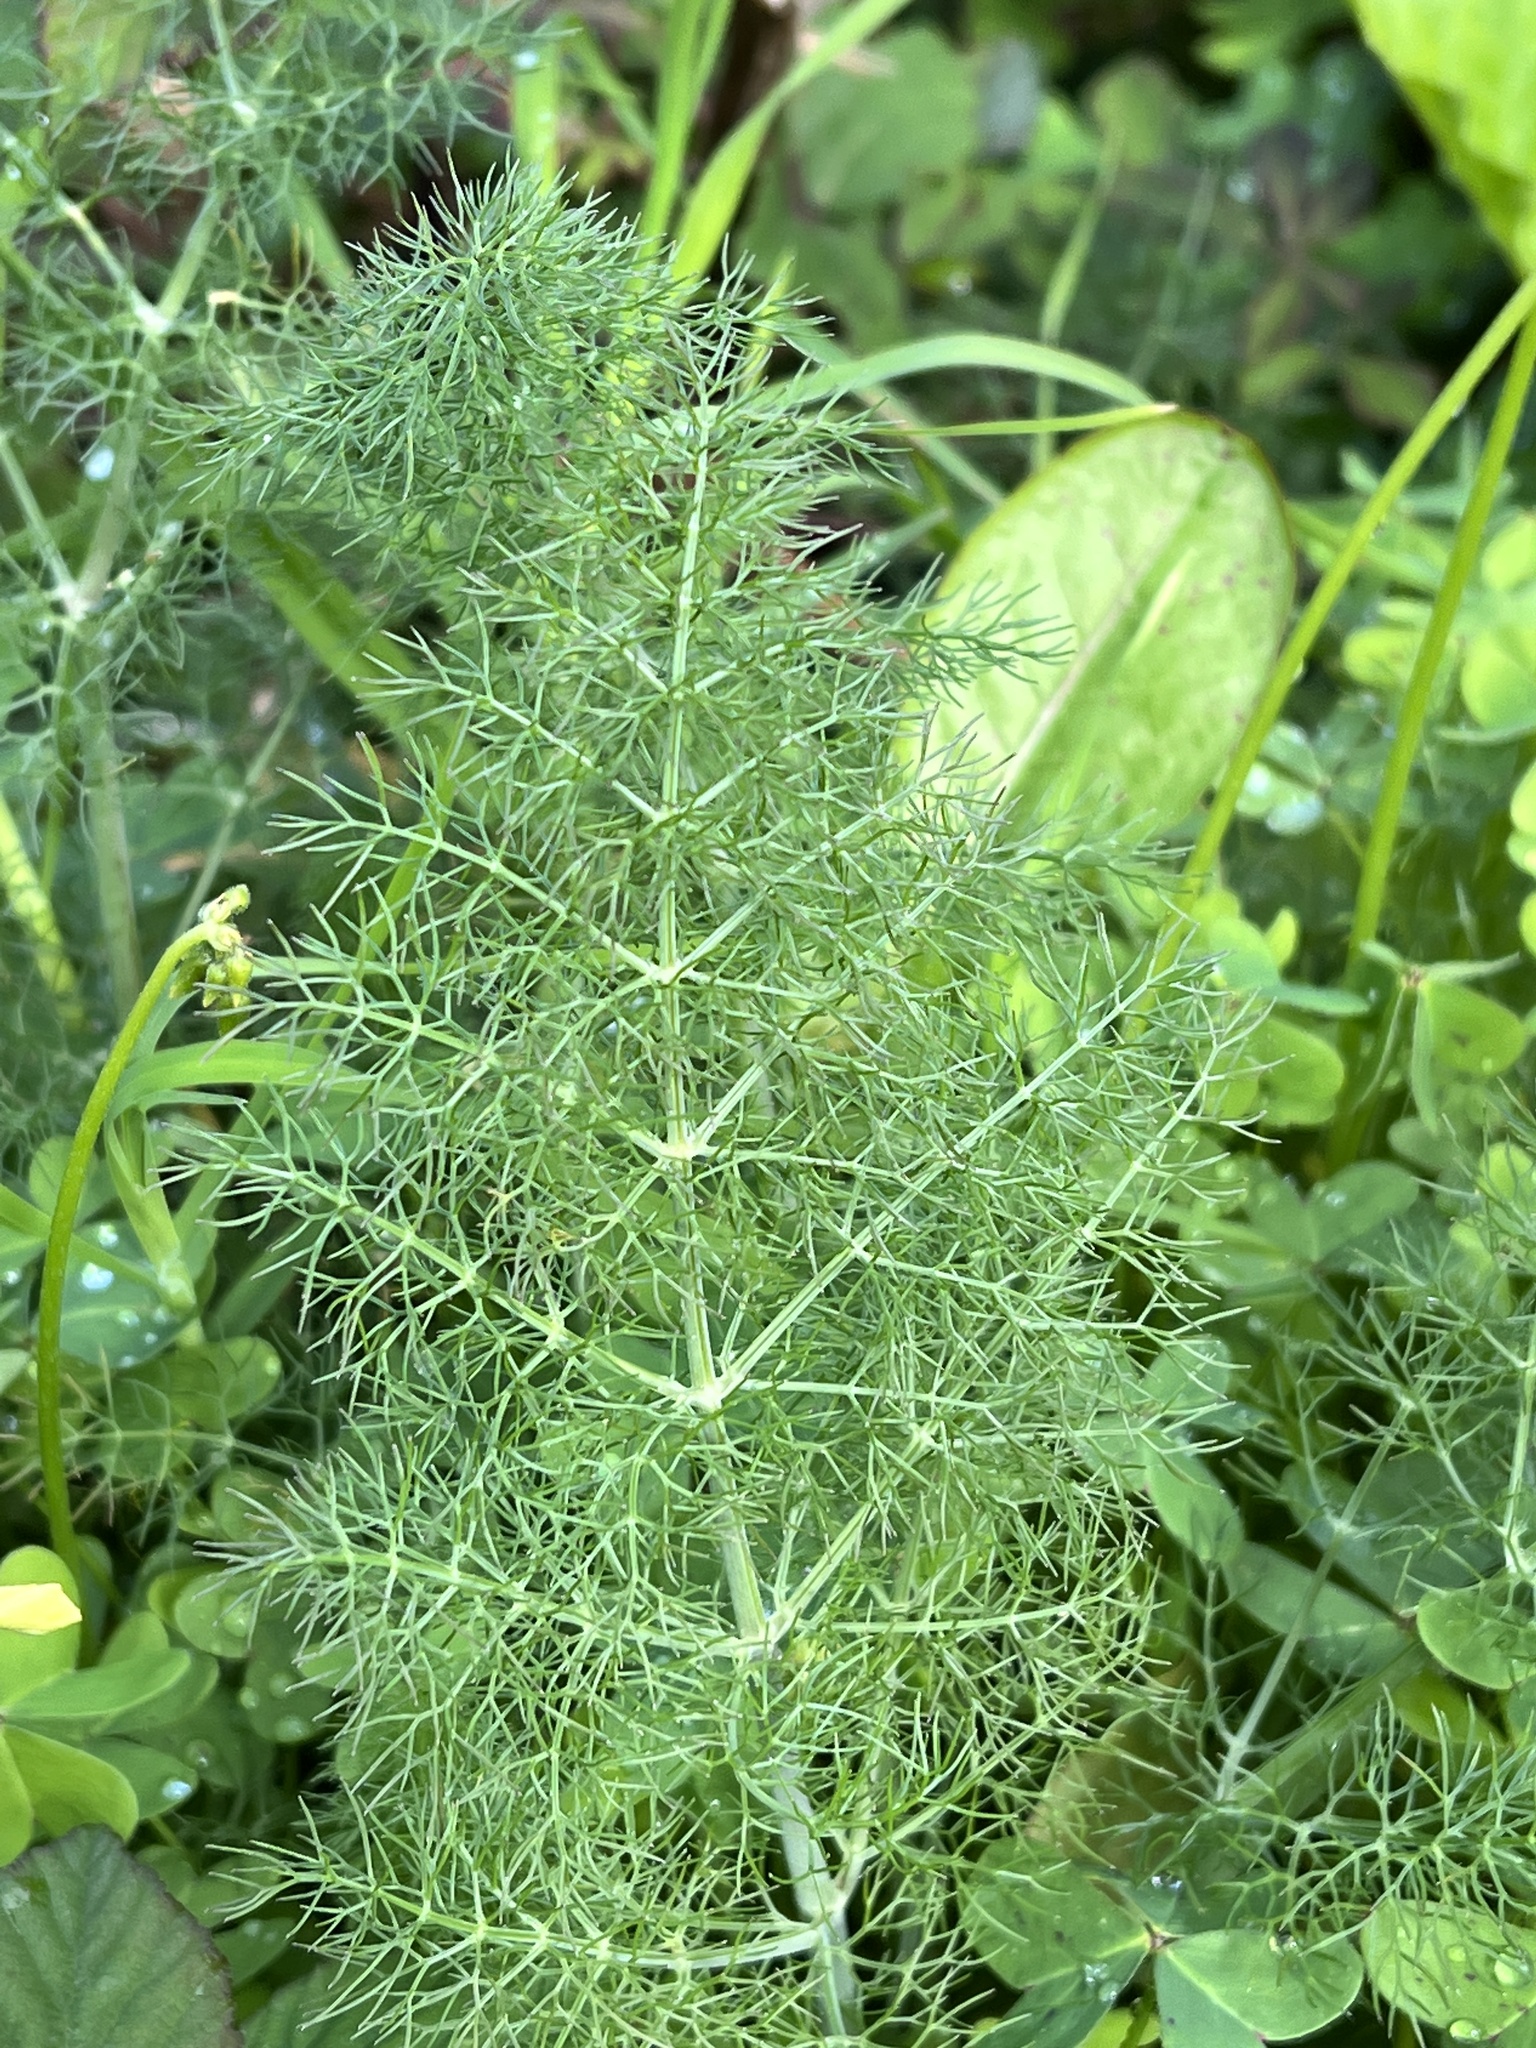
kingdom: Plantae
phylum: Tracheophyta
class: Magnoliopsida
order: Apiales
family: Apiaceae
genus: Foeniculum
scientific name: Foeniculum vulgare
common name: Fennel
